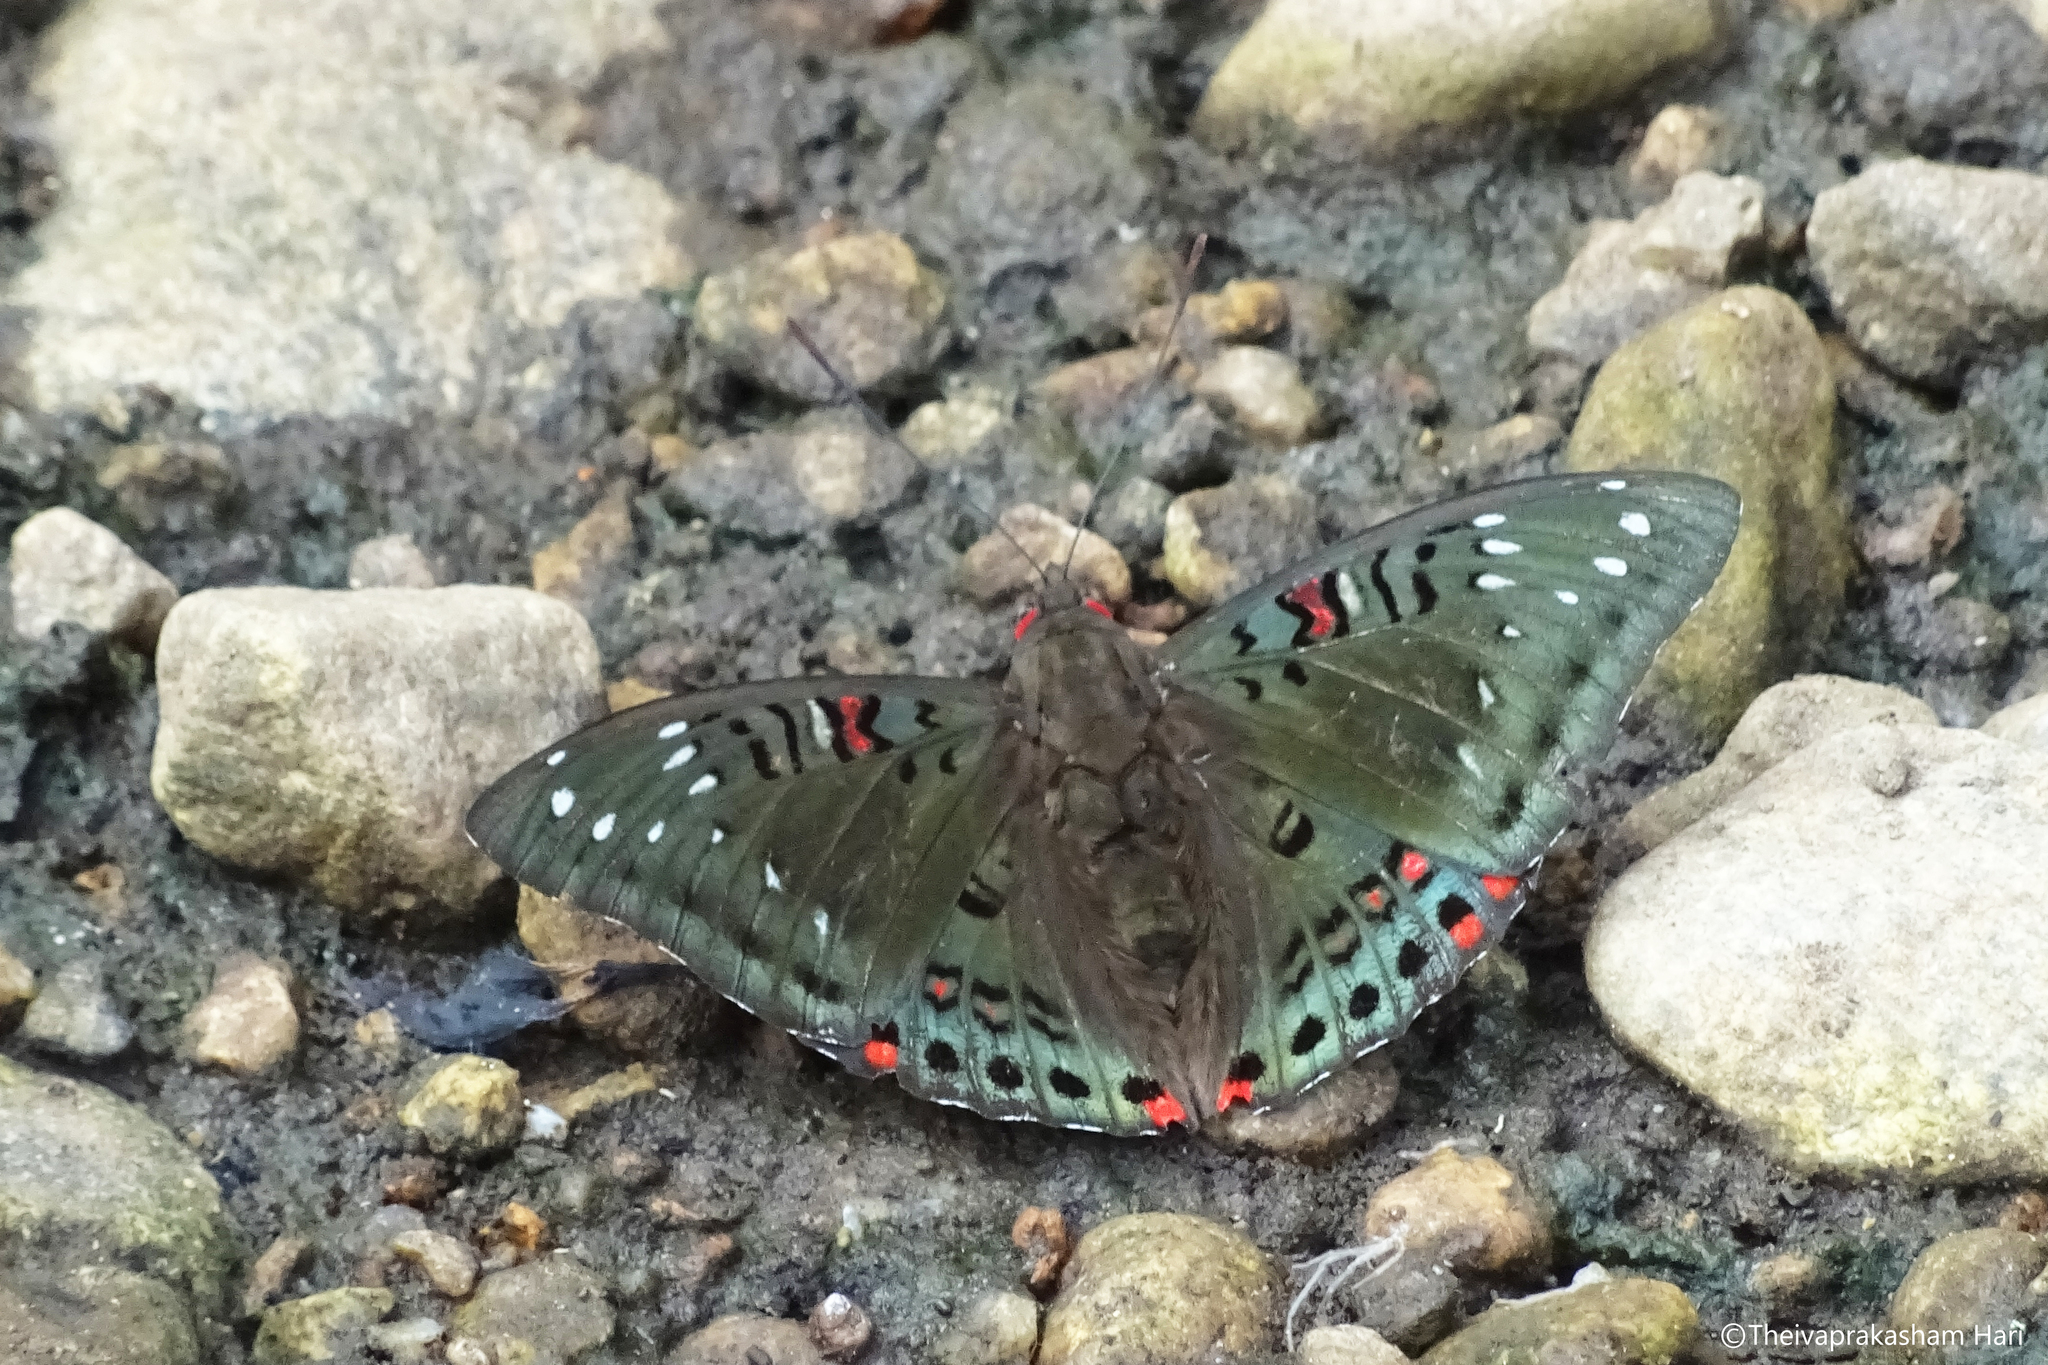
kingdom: Animalia
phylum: Arthropoda
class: Insecta
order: Lepidoptera
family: Nymphalidae
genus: Euthalia
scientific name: Euthalia lubentina
